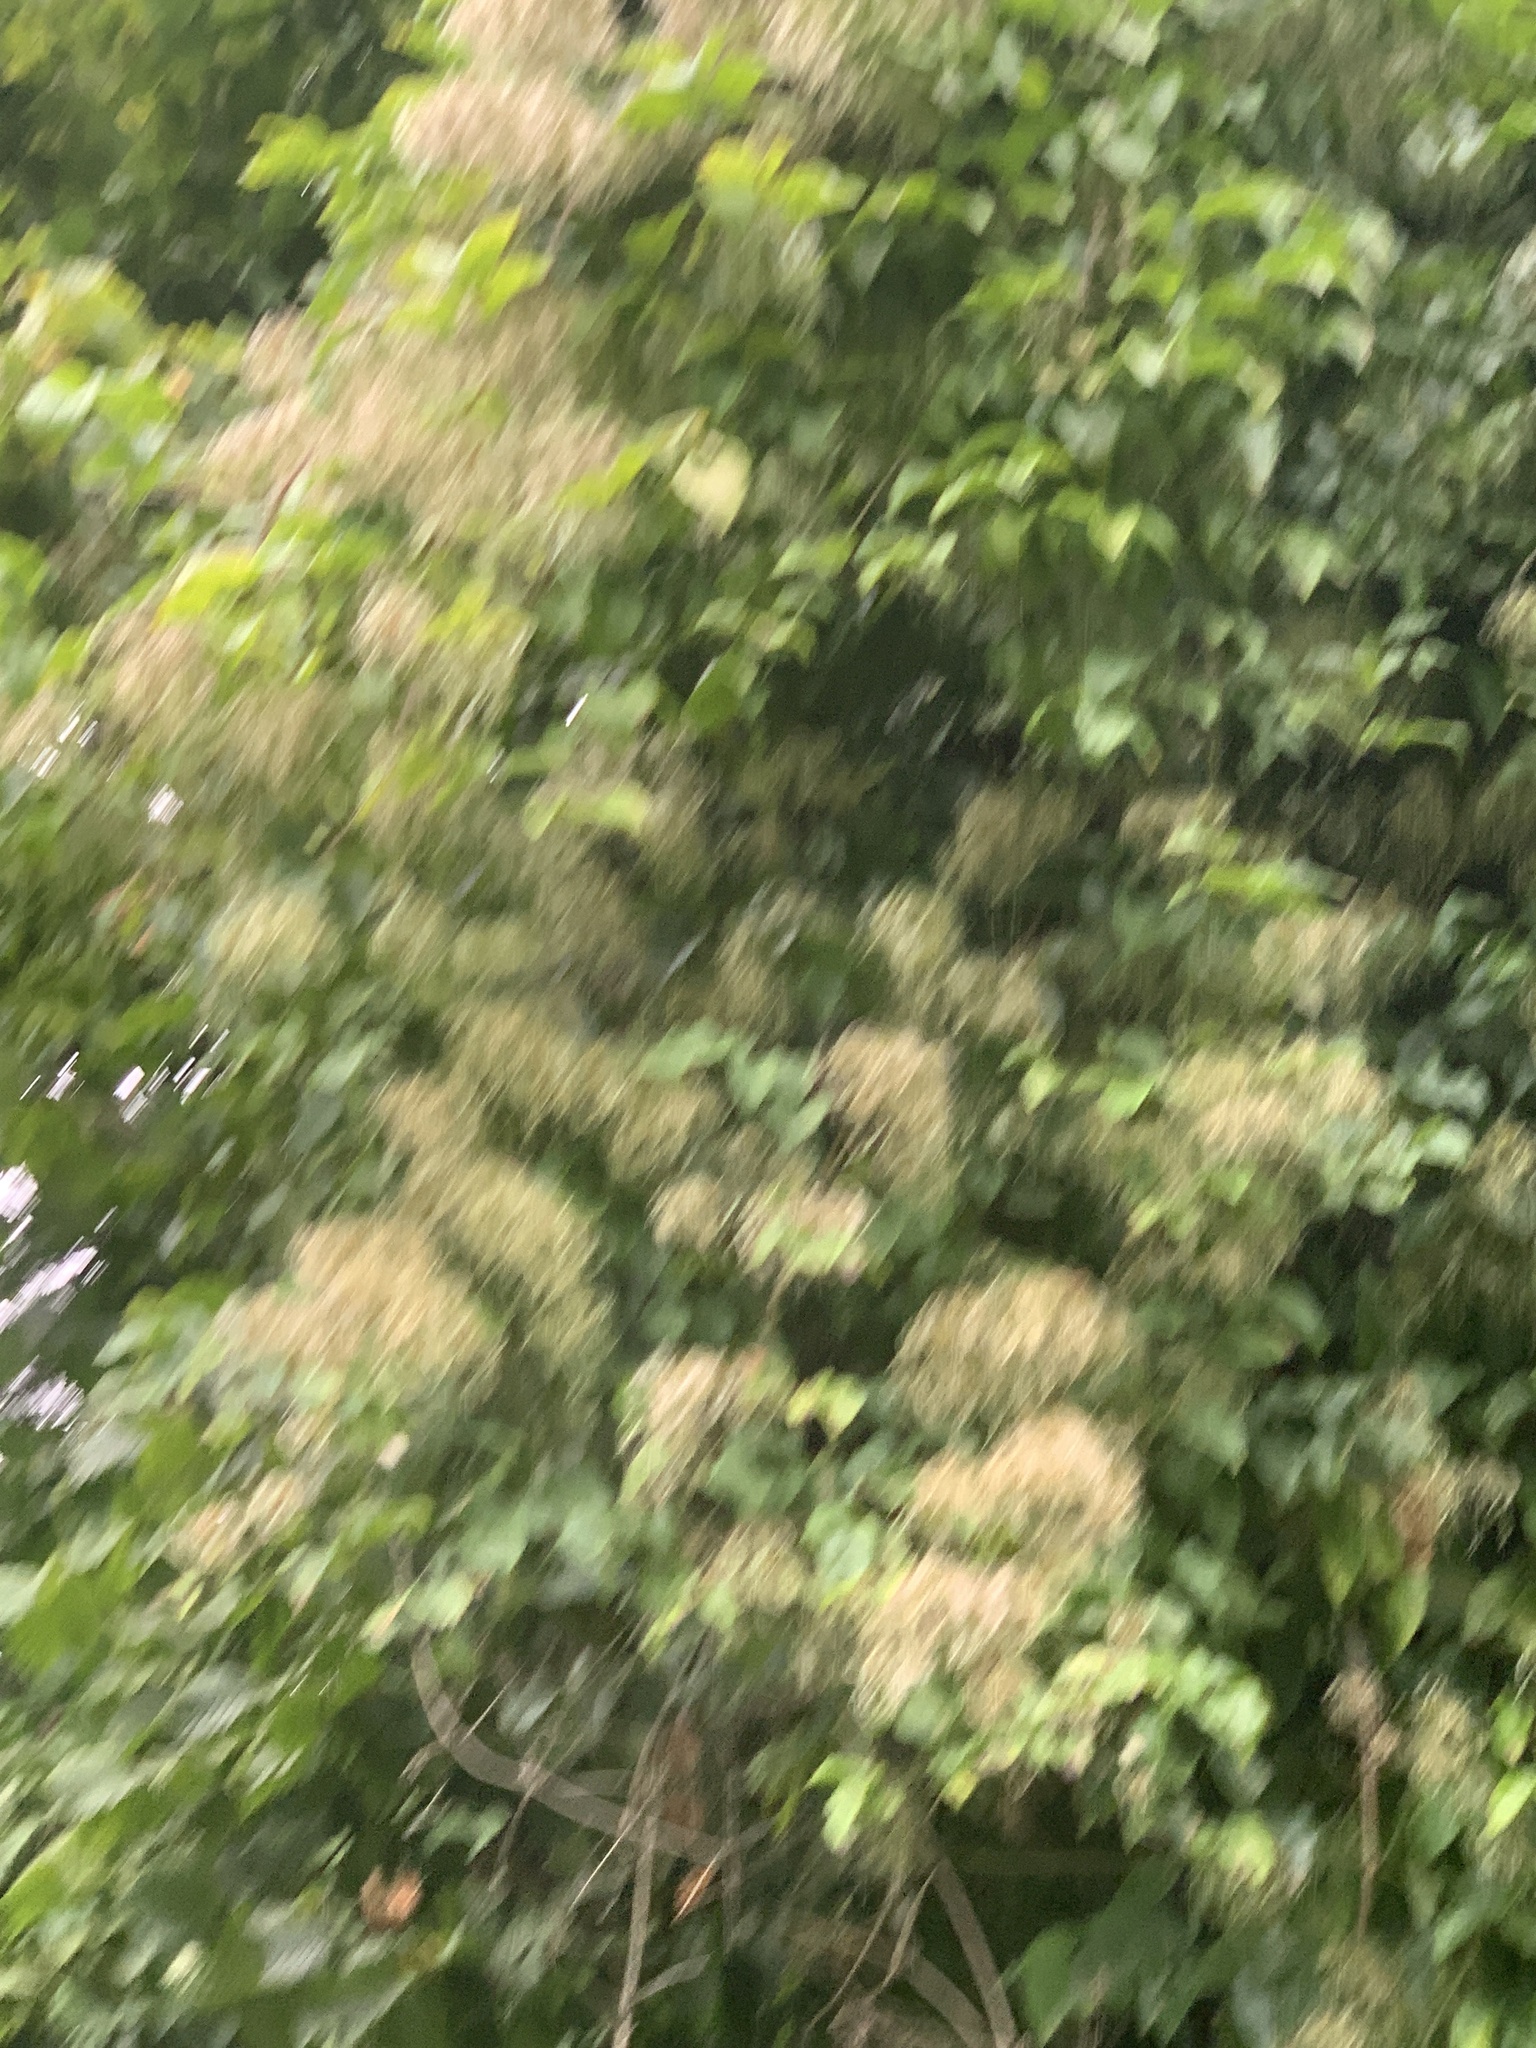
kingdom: Plantae
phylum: Tracheophyta
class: Magnoliopsida
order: Ranunculales
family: Ranunculaceae
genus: Clematis
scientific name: Clematis vitalba
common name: Evergreen clematis
